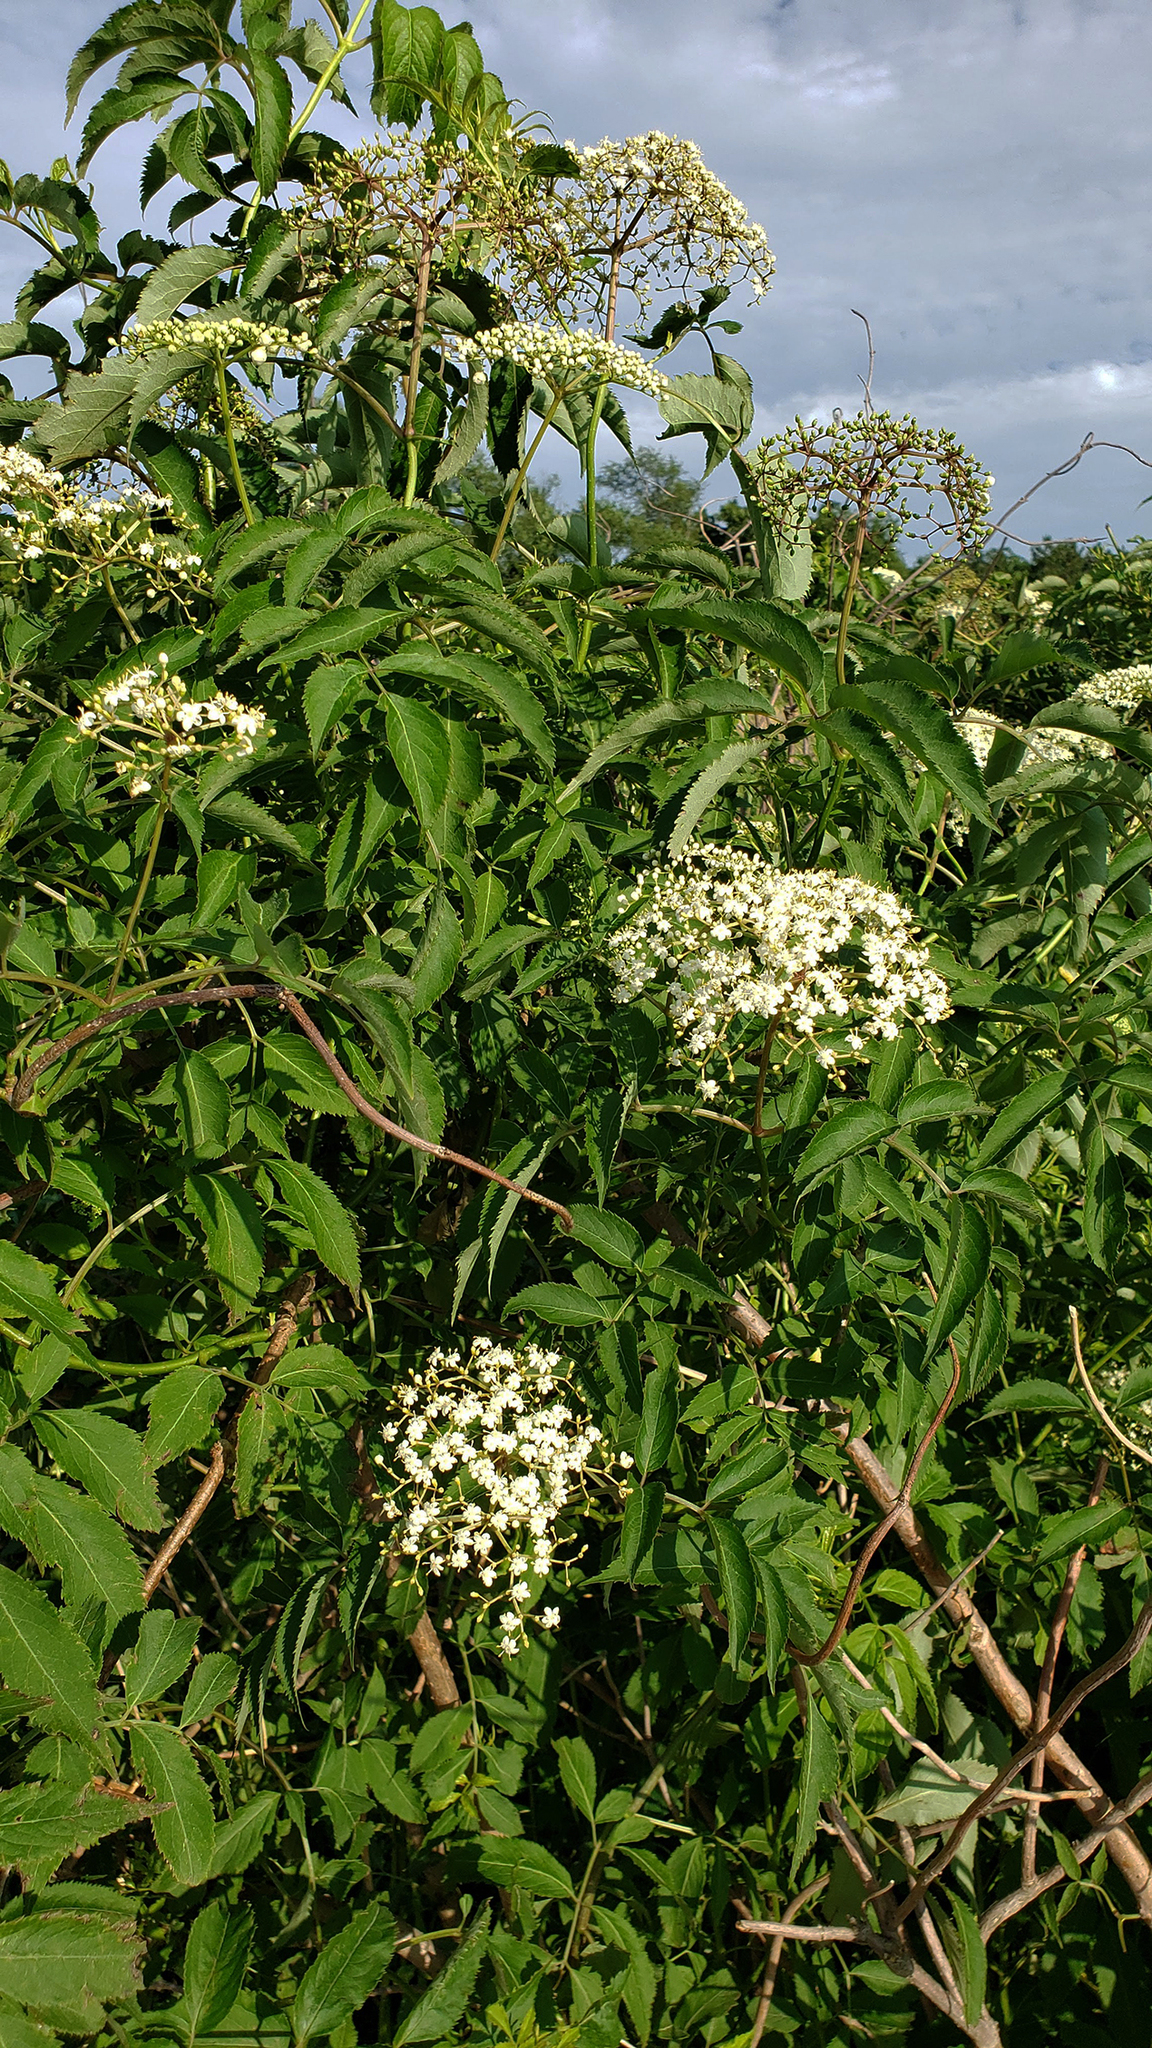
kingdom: Plantae
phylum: Tracheophyta
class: Magnoliopsida
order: Dipsacales
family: Viburnaceae
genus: Sambucus
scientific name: Sambucus canadensis
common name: American elder
